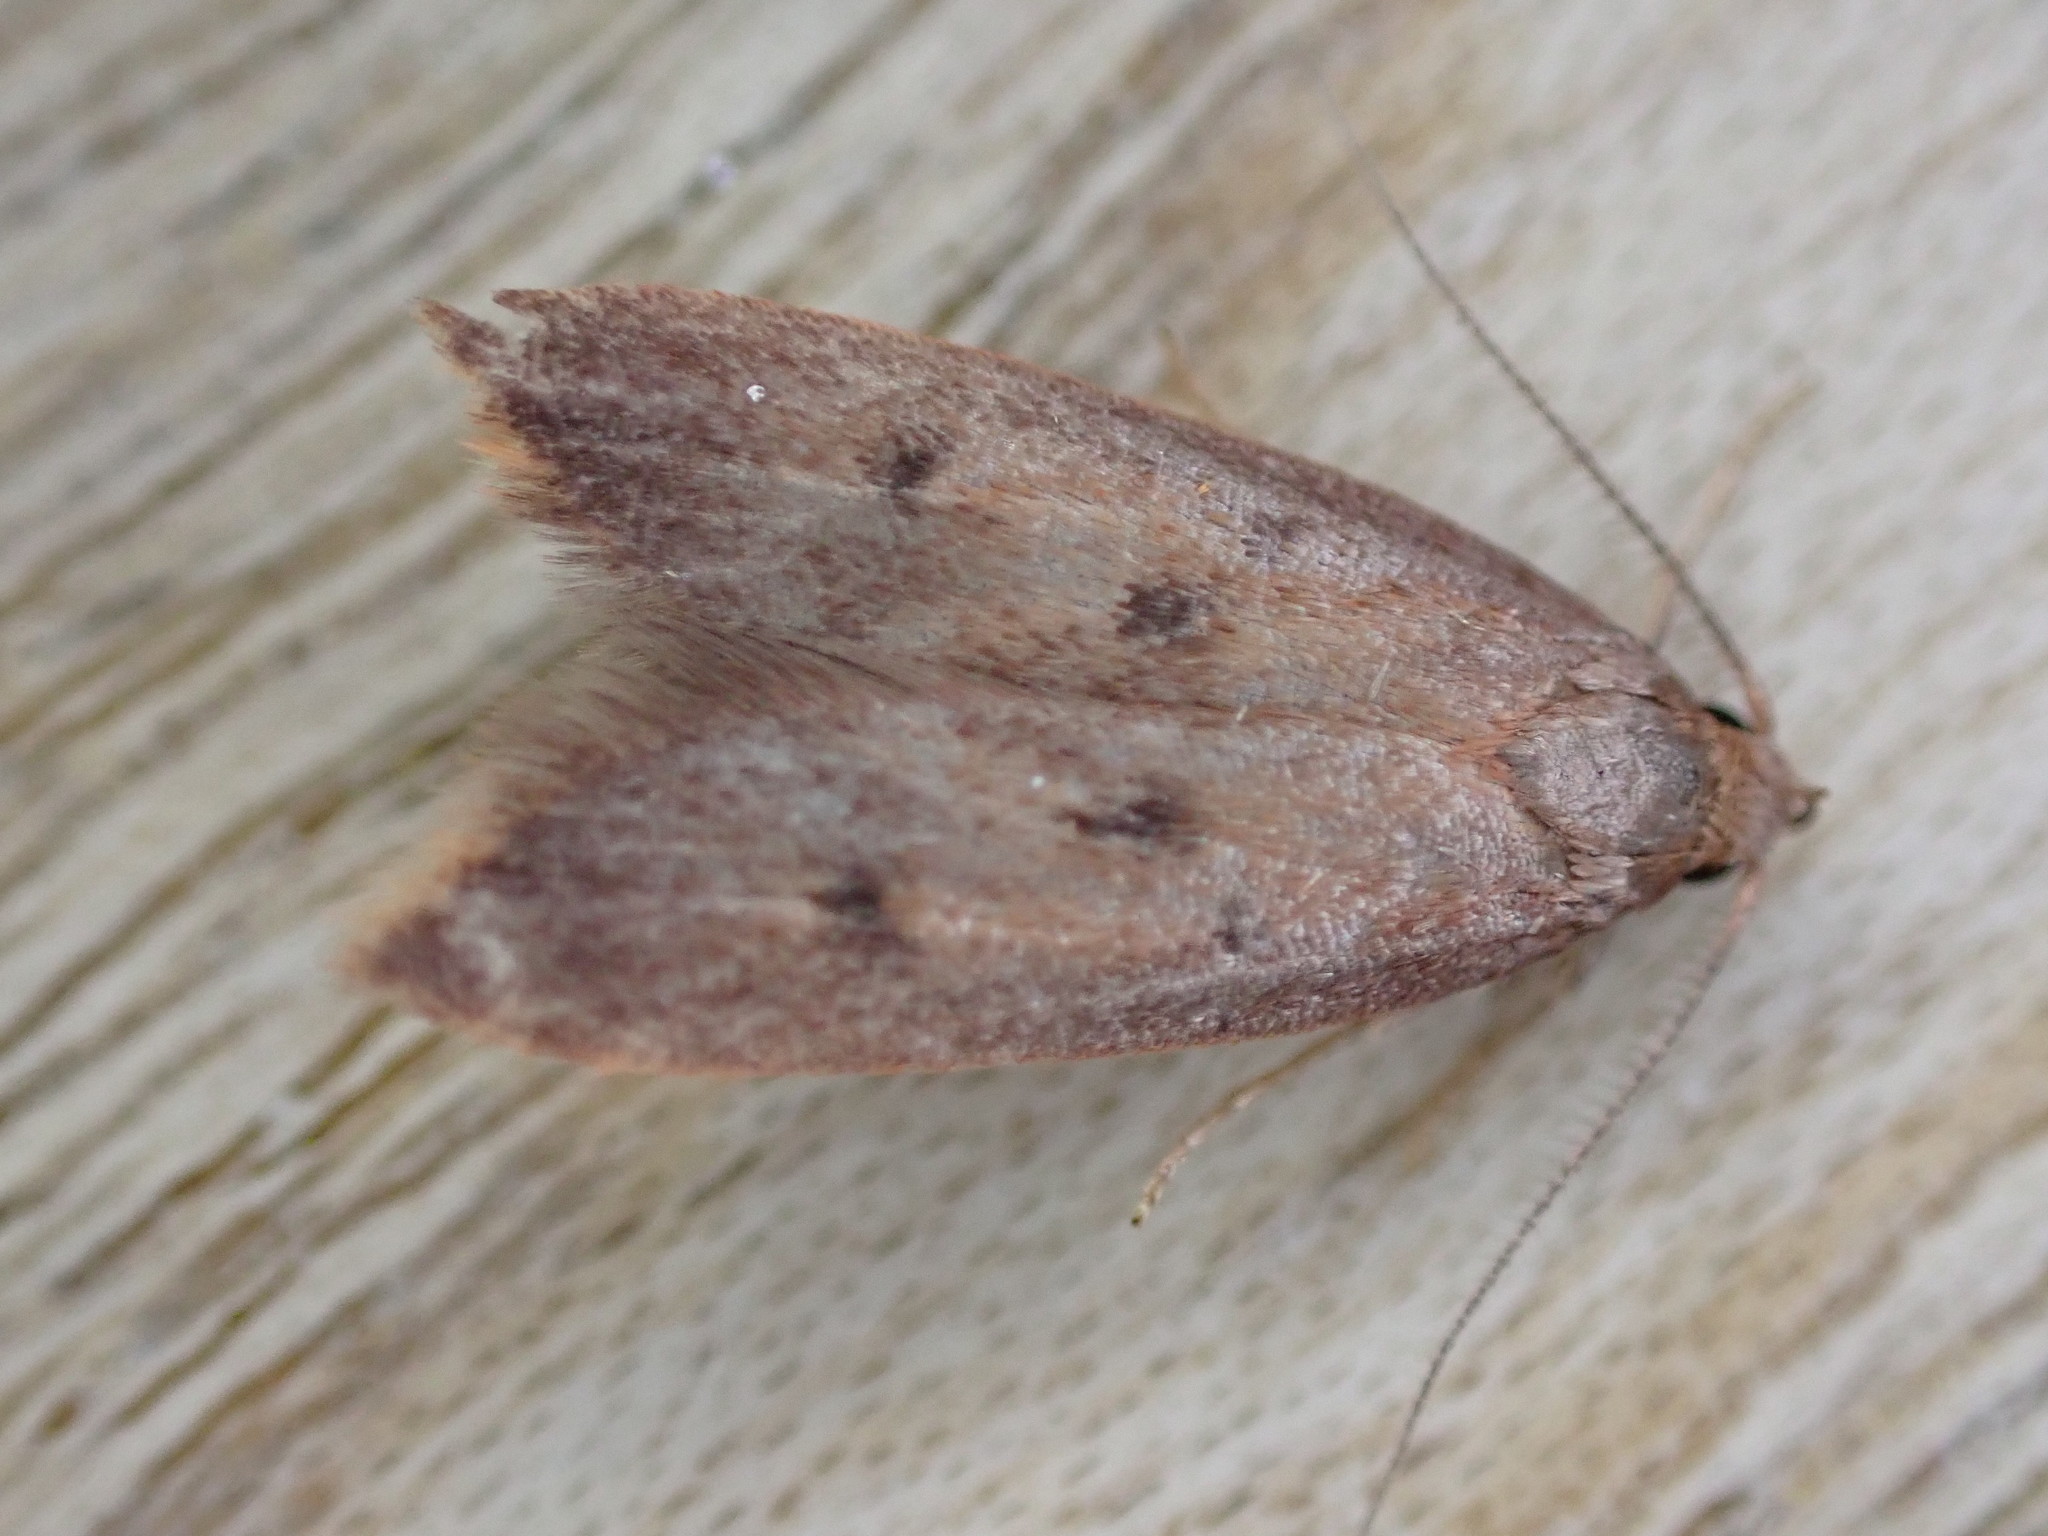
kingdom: Animalia
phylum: Arthropoda
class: Insecta
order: Lepidoptera
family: Oecophoridae
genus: Tachystola
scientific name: Tachystola acroxantha
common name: Ruddy streak
